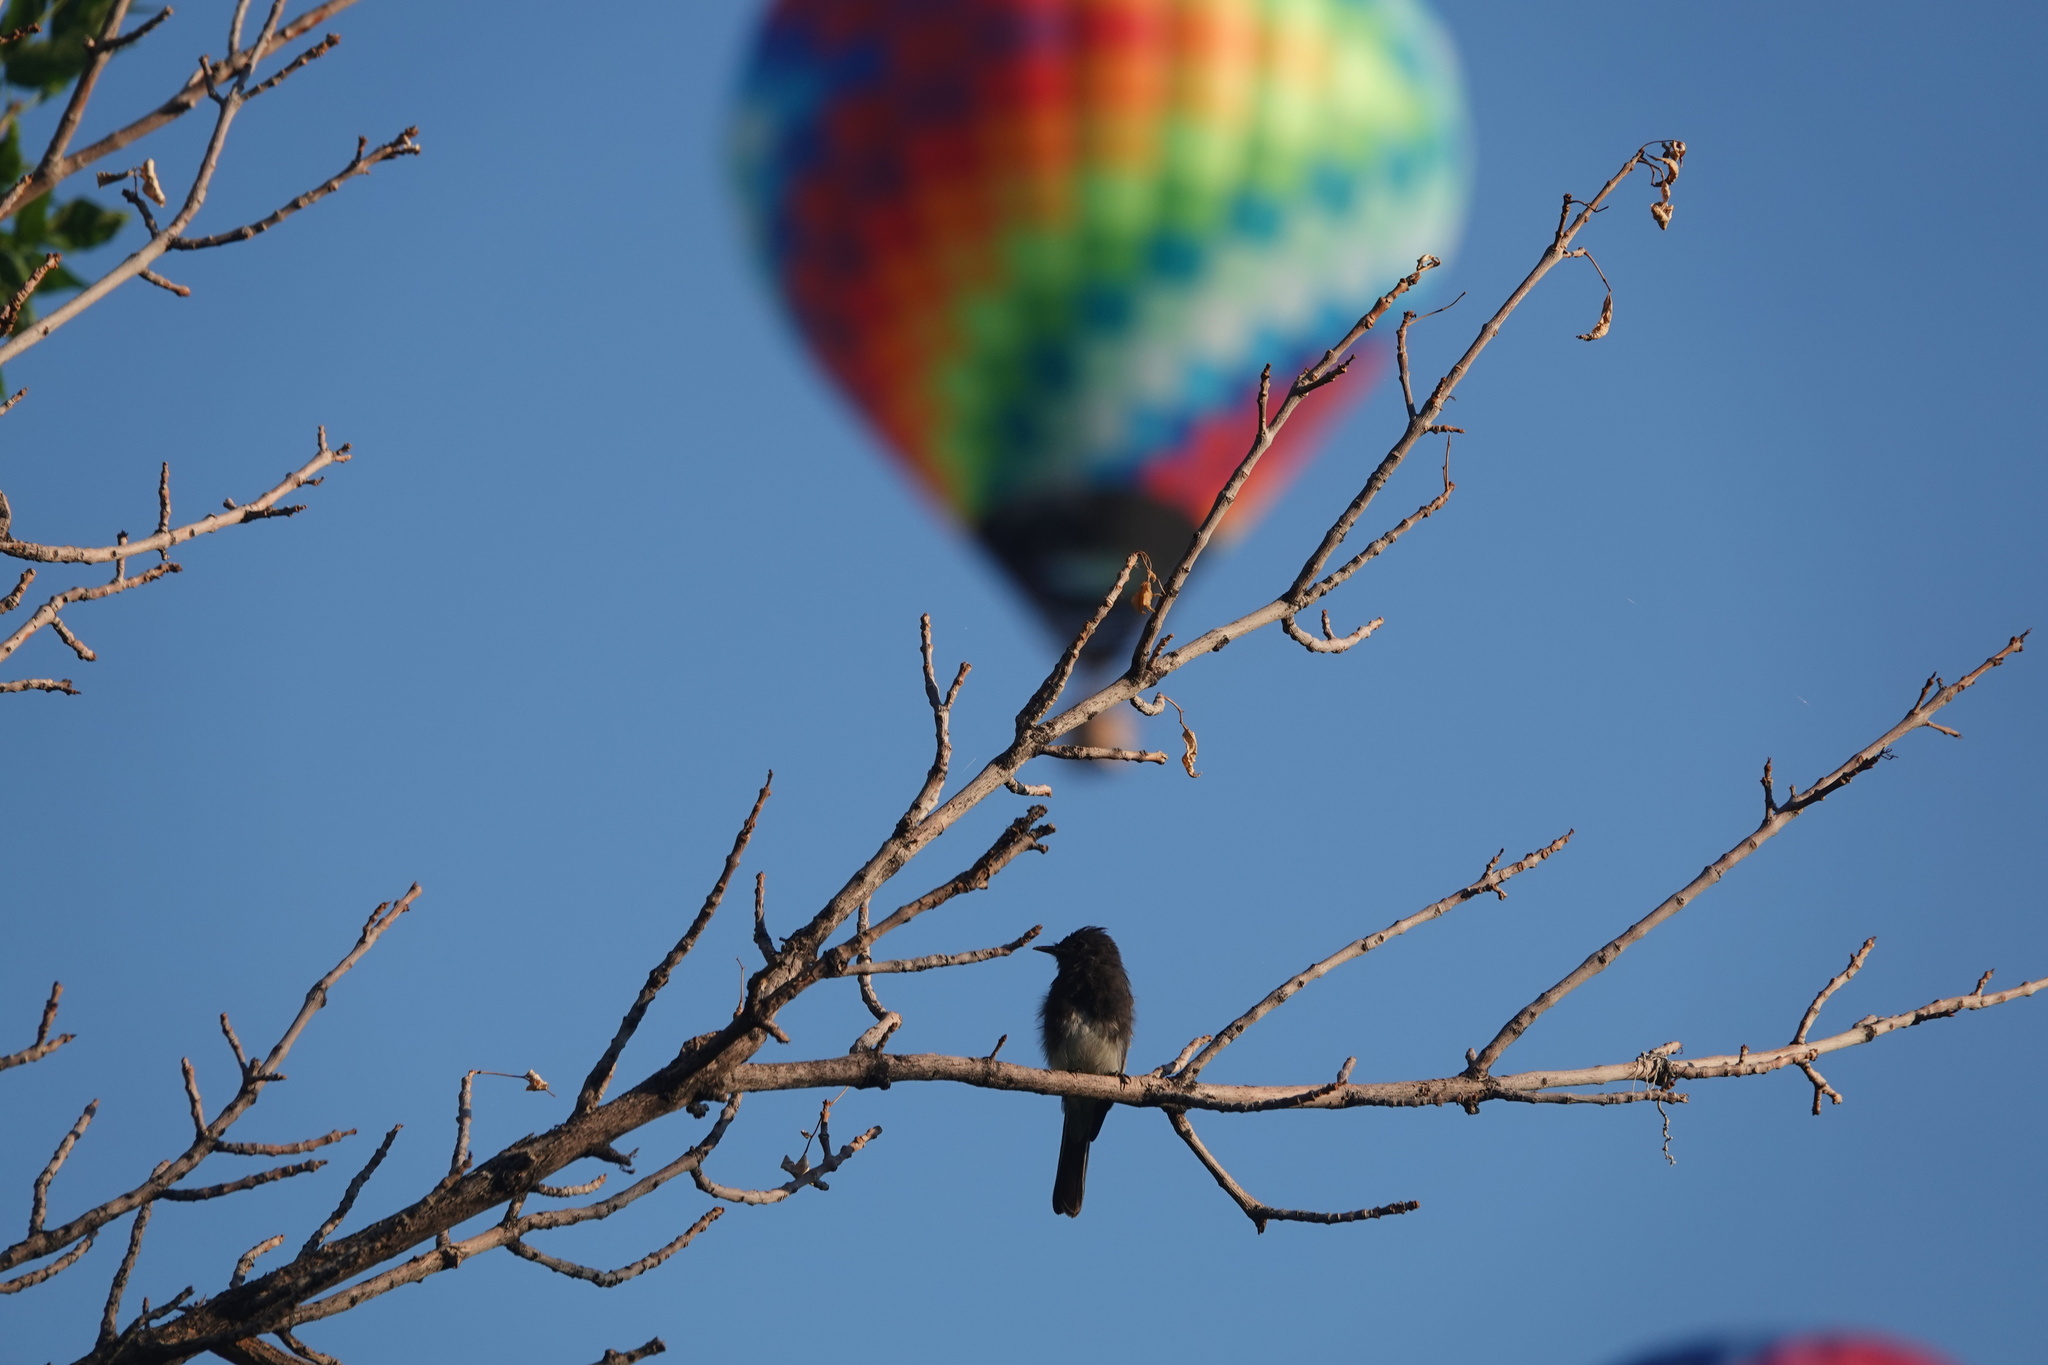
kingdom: Animalia
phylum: Chordata
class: Aves
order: Passeriformes
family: Tyrannidae
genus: Sayornis
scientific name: Sayornis nigricans
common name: Black phoebe
